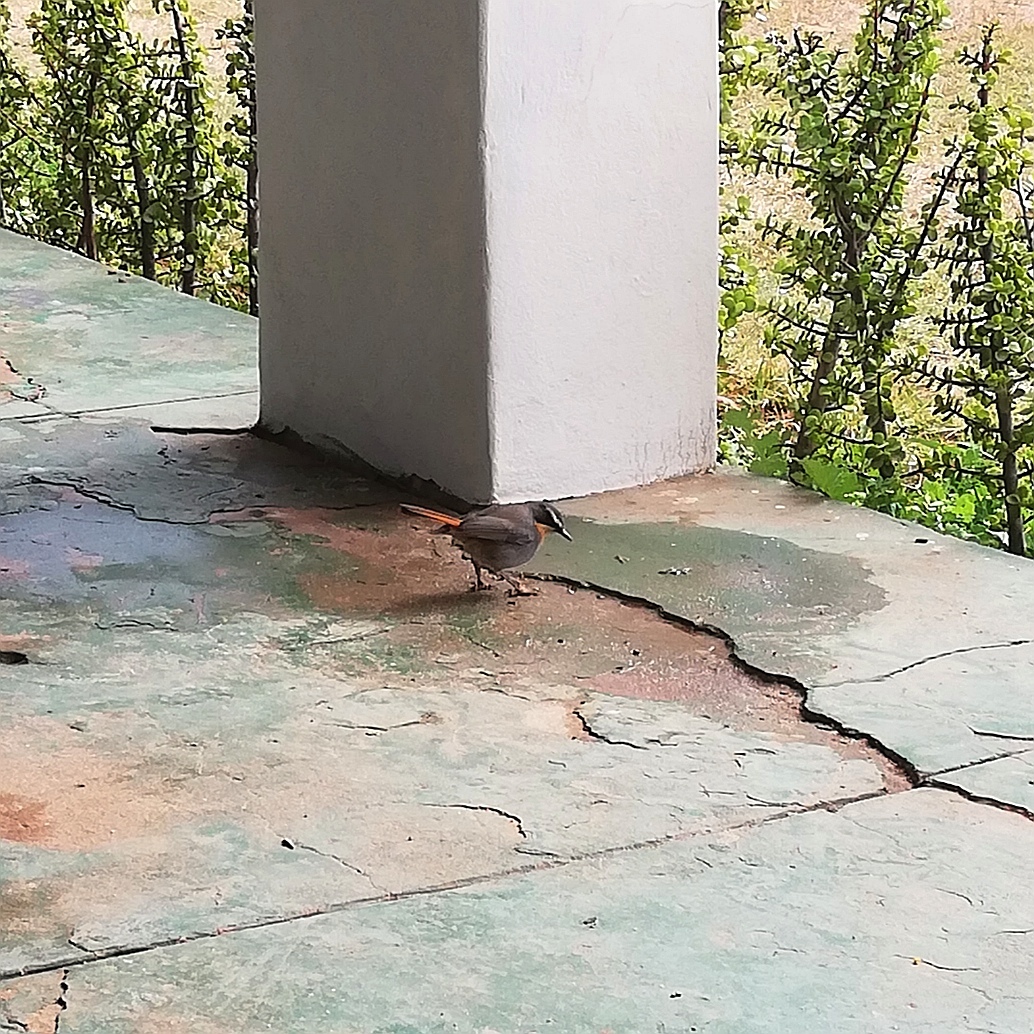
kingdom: Animalia
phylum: Chordata
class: Aves
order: Passeriformes
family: Muscicapidae
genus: Cossypha
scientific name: Cossypha caffra
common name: Cape robin-chat
